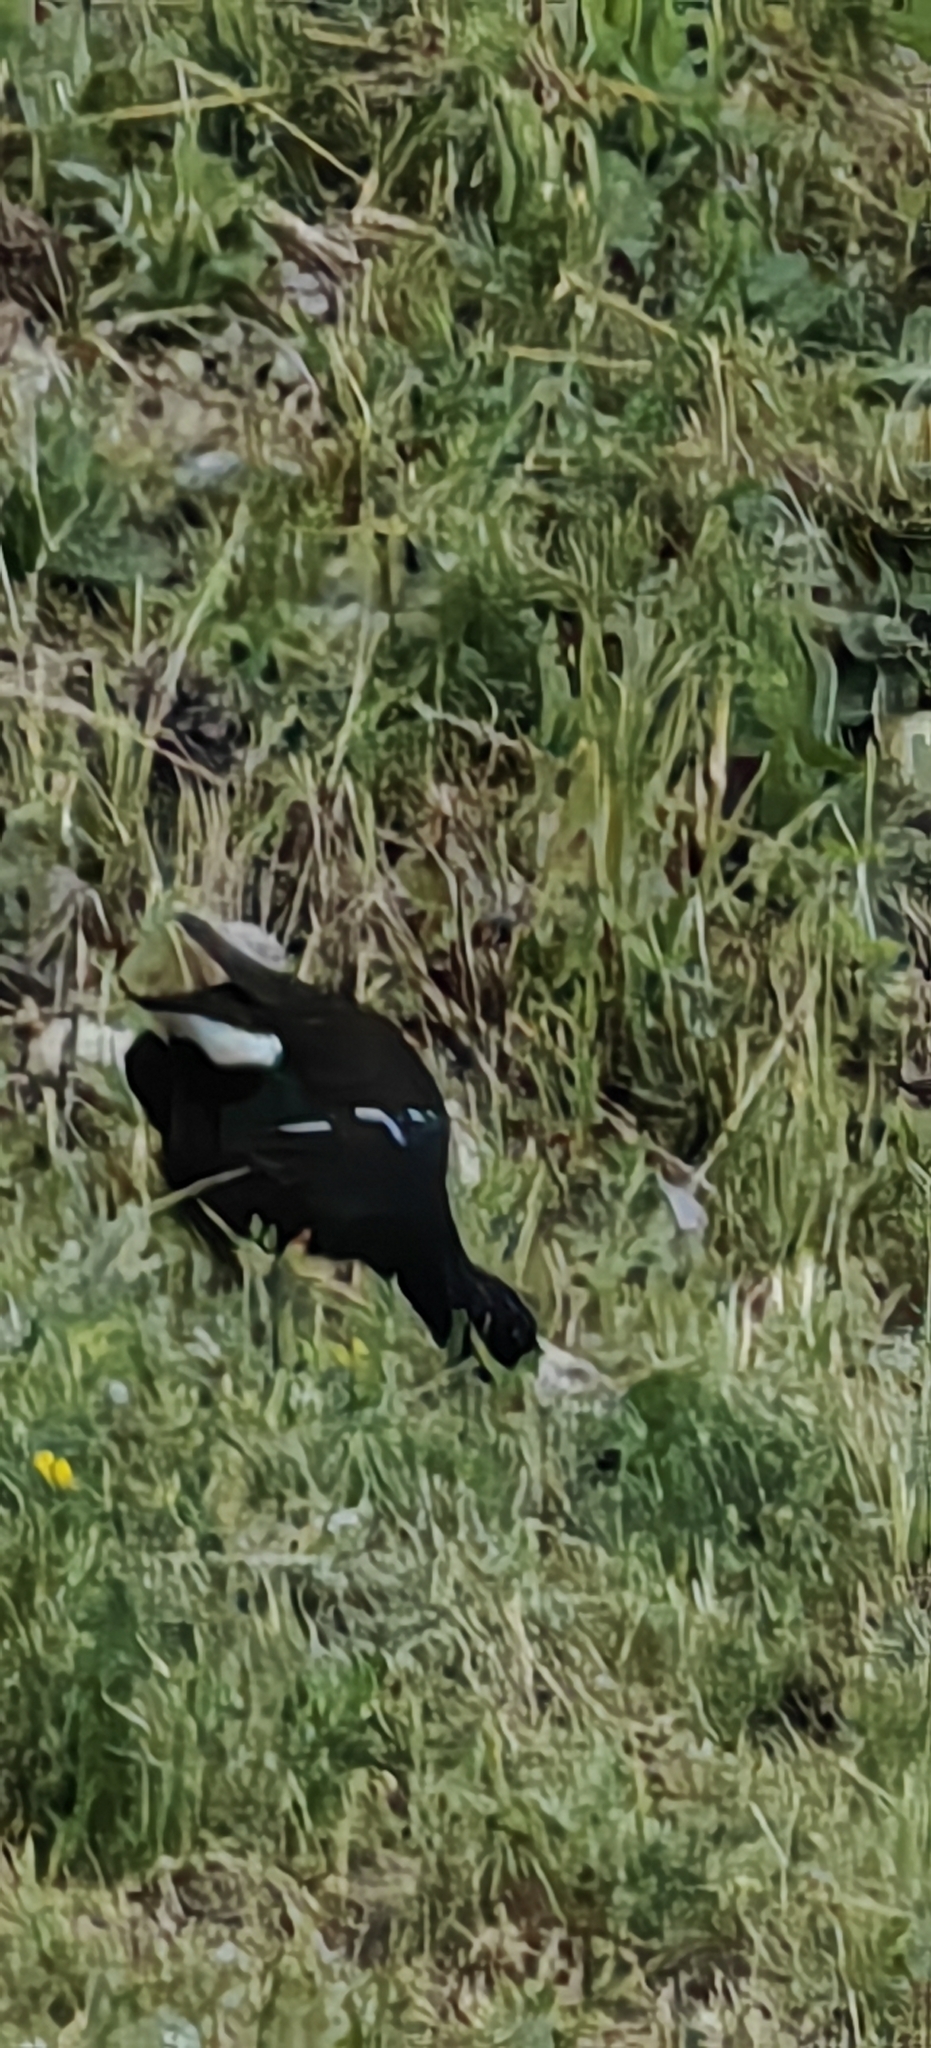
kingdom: Animalia
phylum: Chordata
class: Aves
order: Gruiformes
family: Rallidae
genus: Gallinula
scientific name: Gallinula chloropus
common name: Common moorhen
